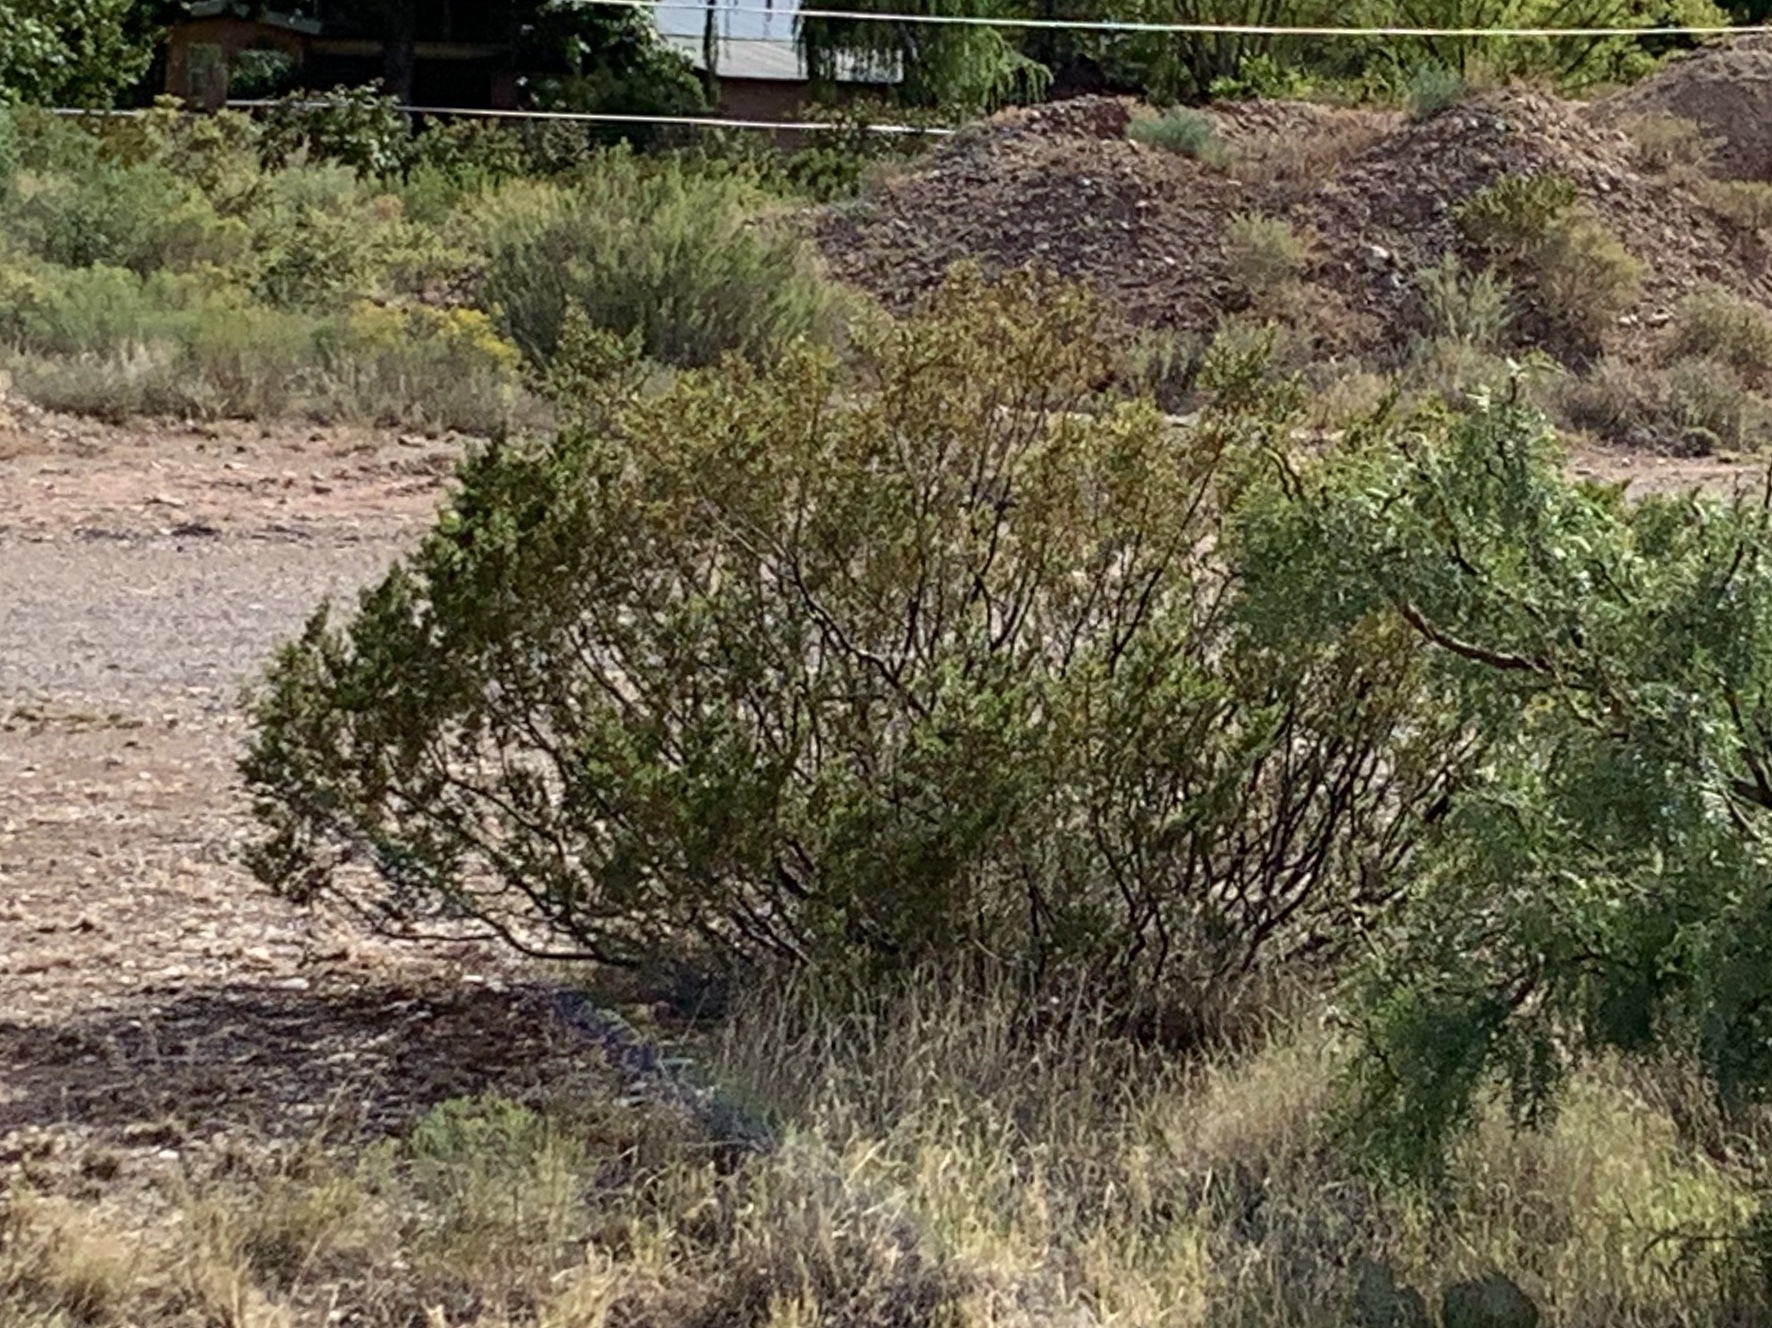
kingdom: Plantae
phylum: Tracheophyta
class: Magnoliopsida
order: Zygophyllales
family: Zygophyllaceae
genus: Larrea
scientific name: Larrea tridentata
